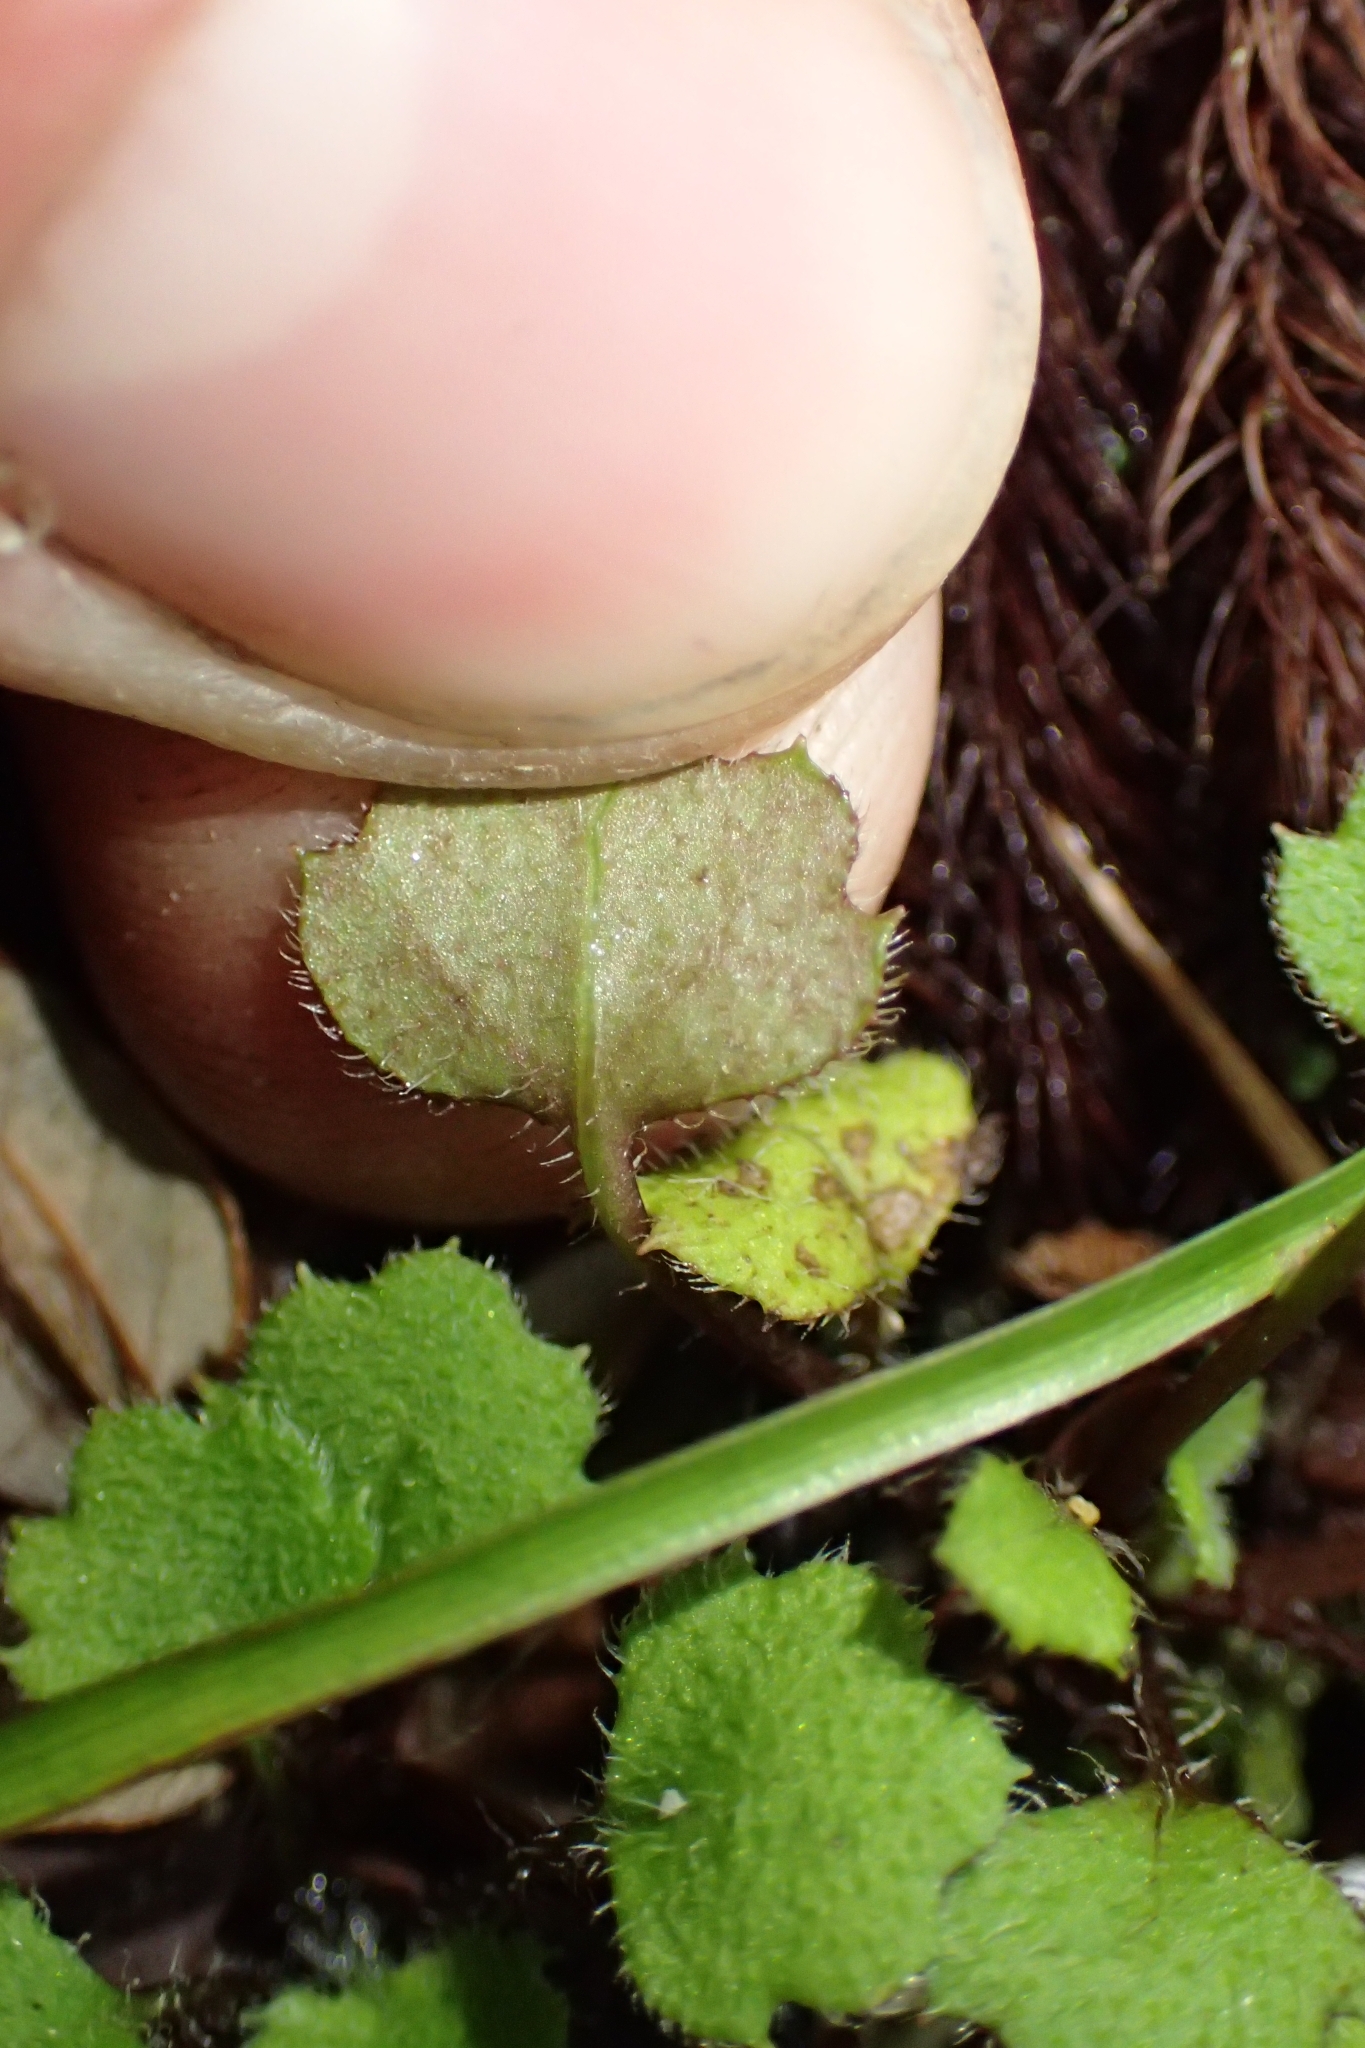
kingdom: Plantae
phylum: Tracheophyta
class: Magnoliopsida
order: Asterales
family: Asteraceae
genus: Lagenophora
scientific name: Lagenophora strangulata
